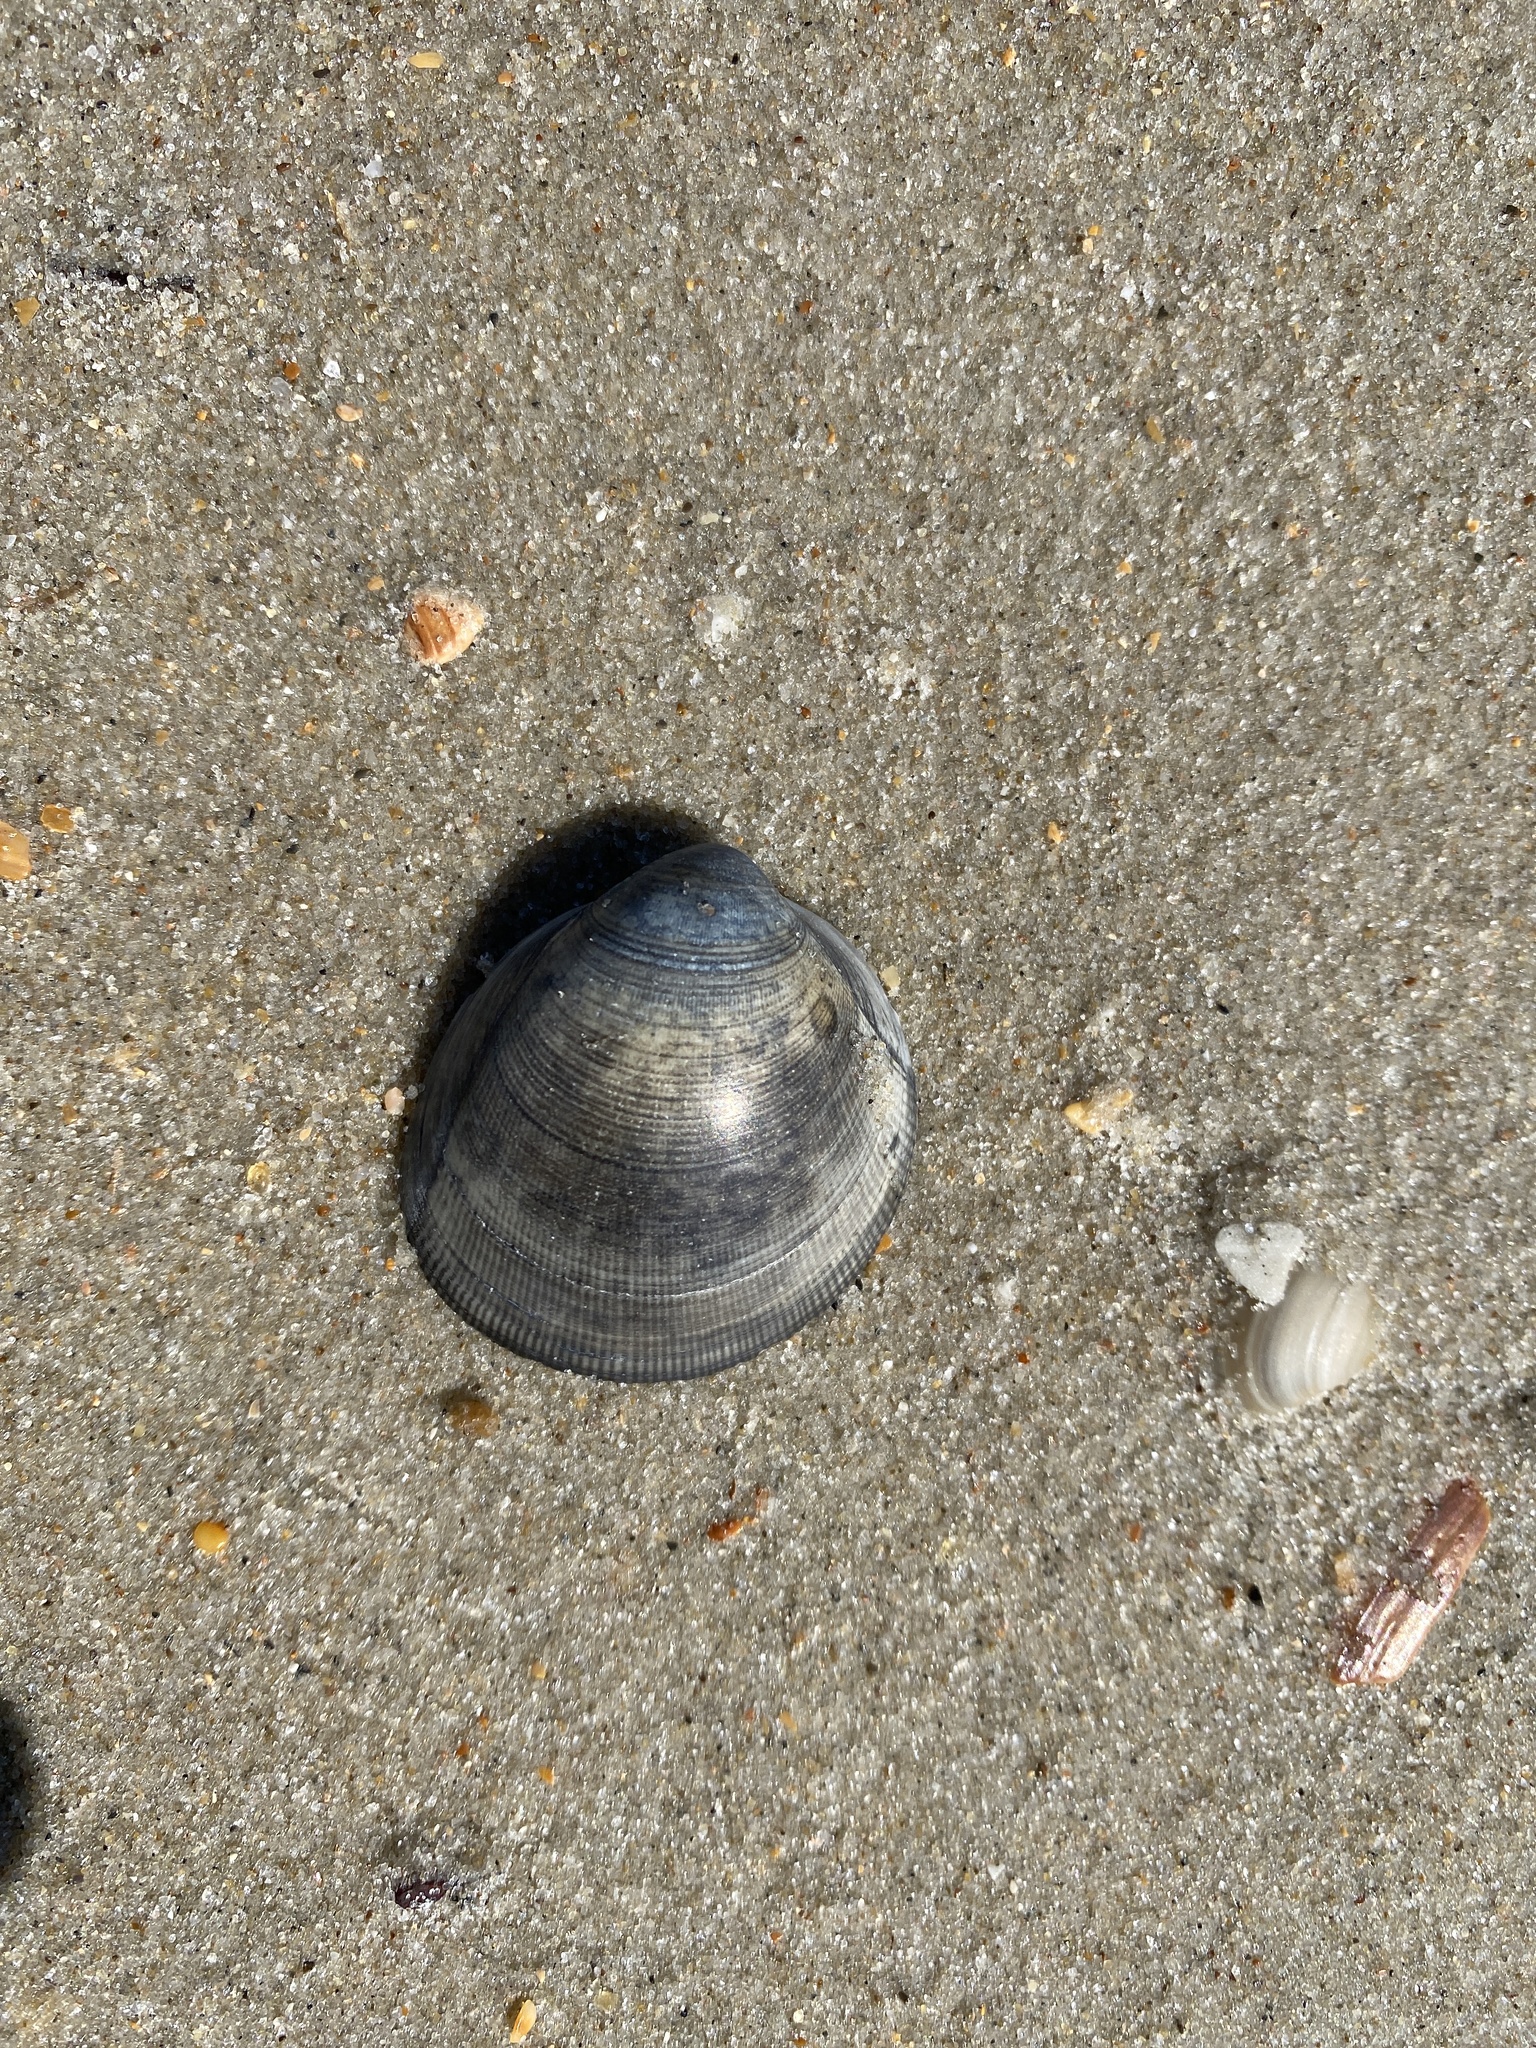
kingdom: Animalia
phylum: Mollusca
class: Bivalvia
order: Cardiida
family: Cardiidae
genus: Laevicardium
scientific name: Laevicardium serratum
